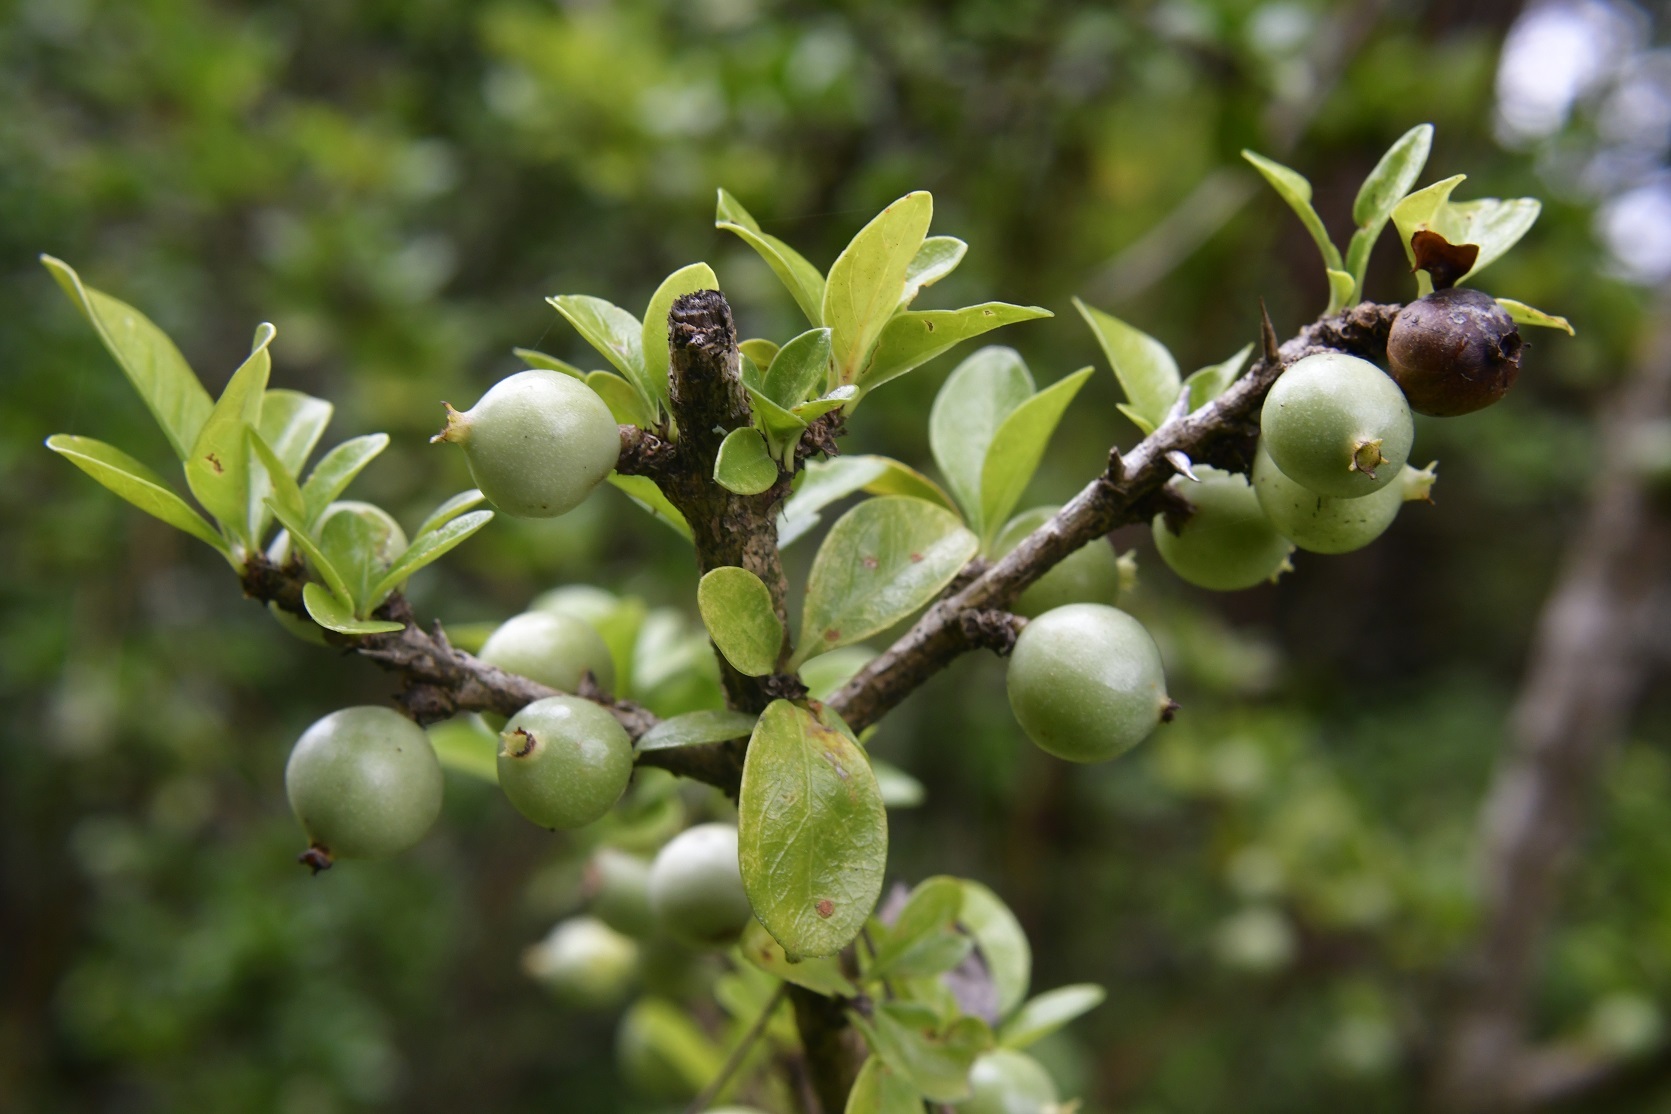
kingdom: Plantae
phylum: Tracheophyta
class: Magnoliopsida
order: Gentianales
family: Rubiaceae
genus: Randia
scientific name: Randia chiapensis
